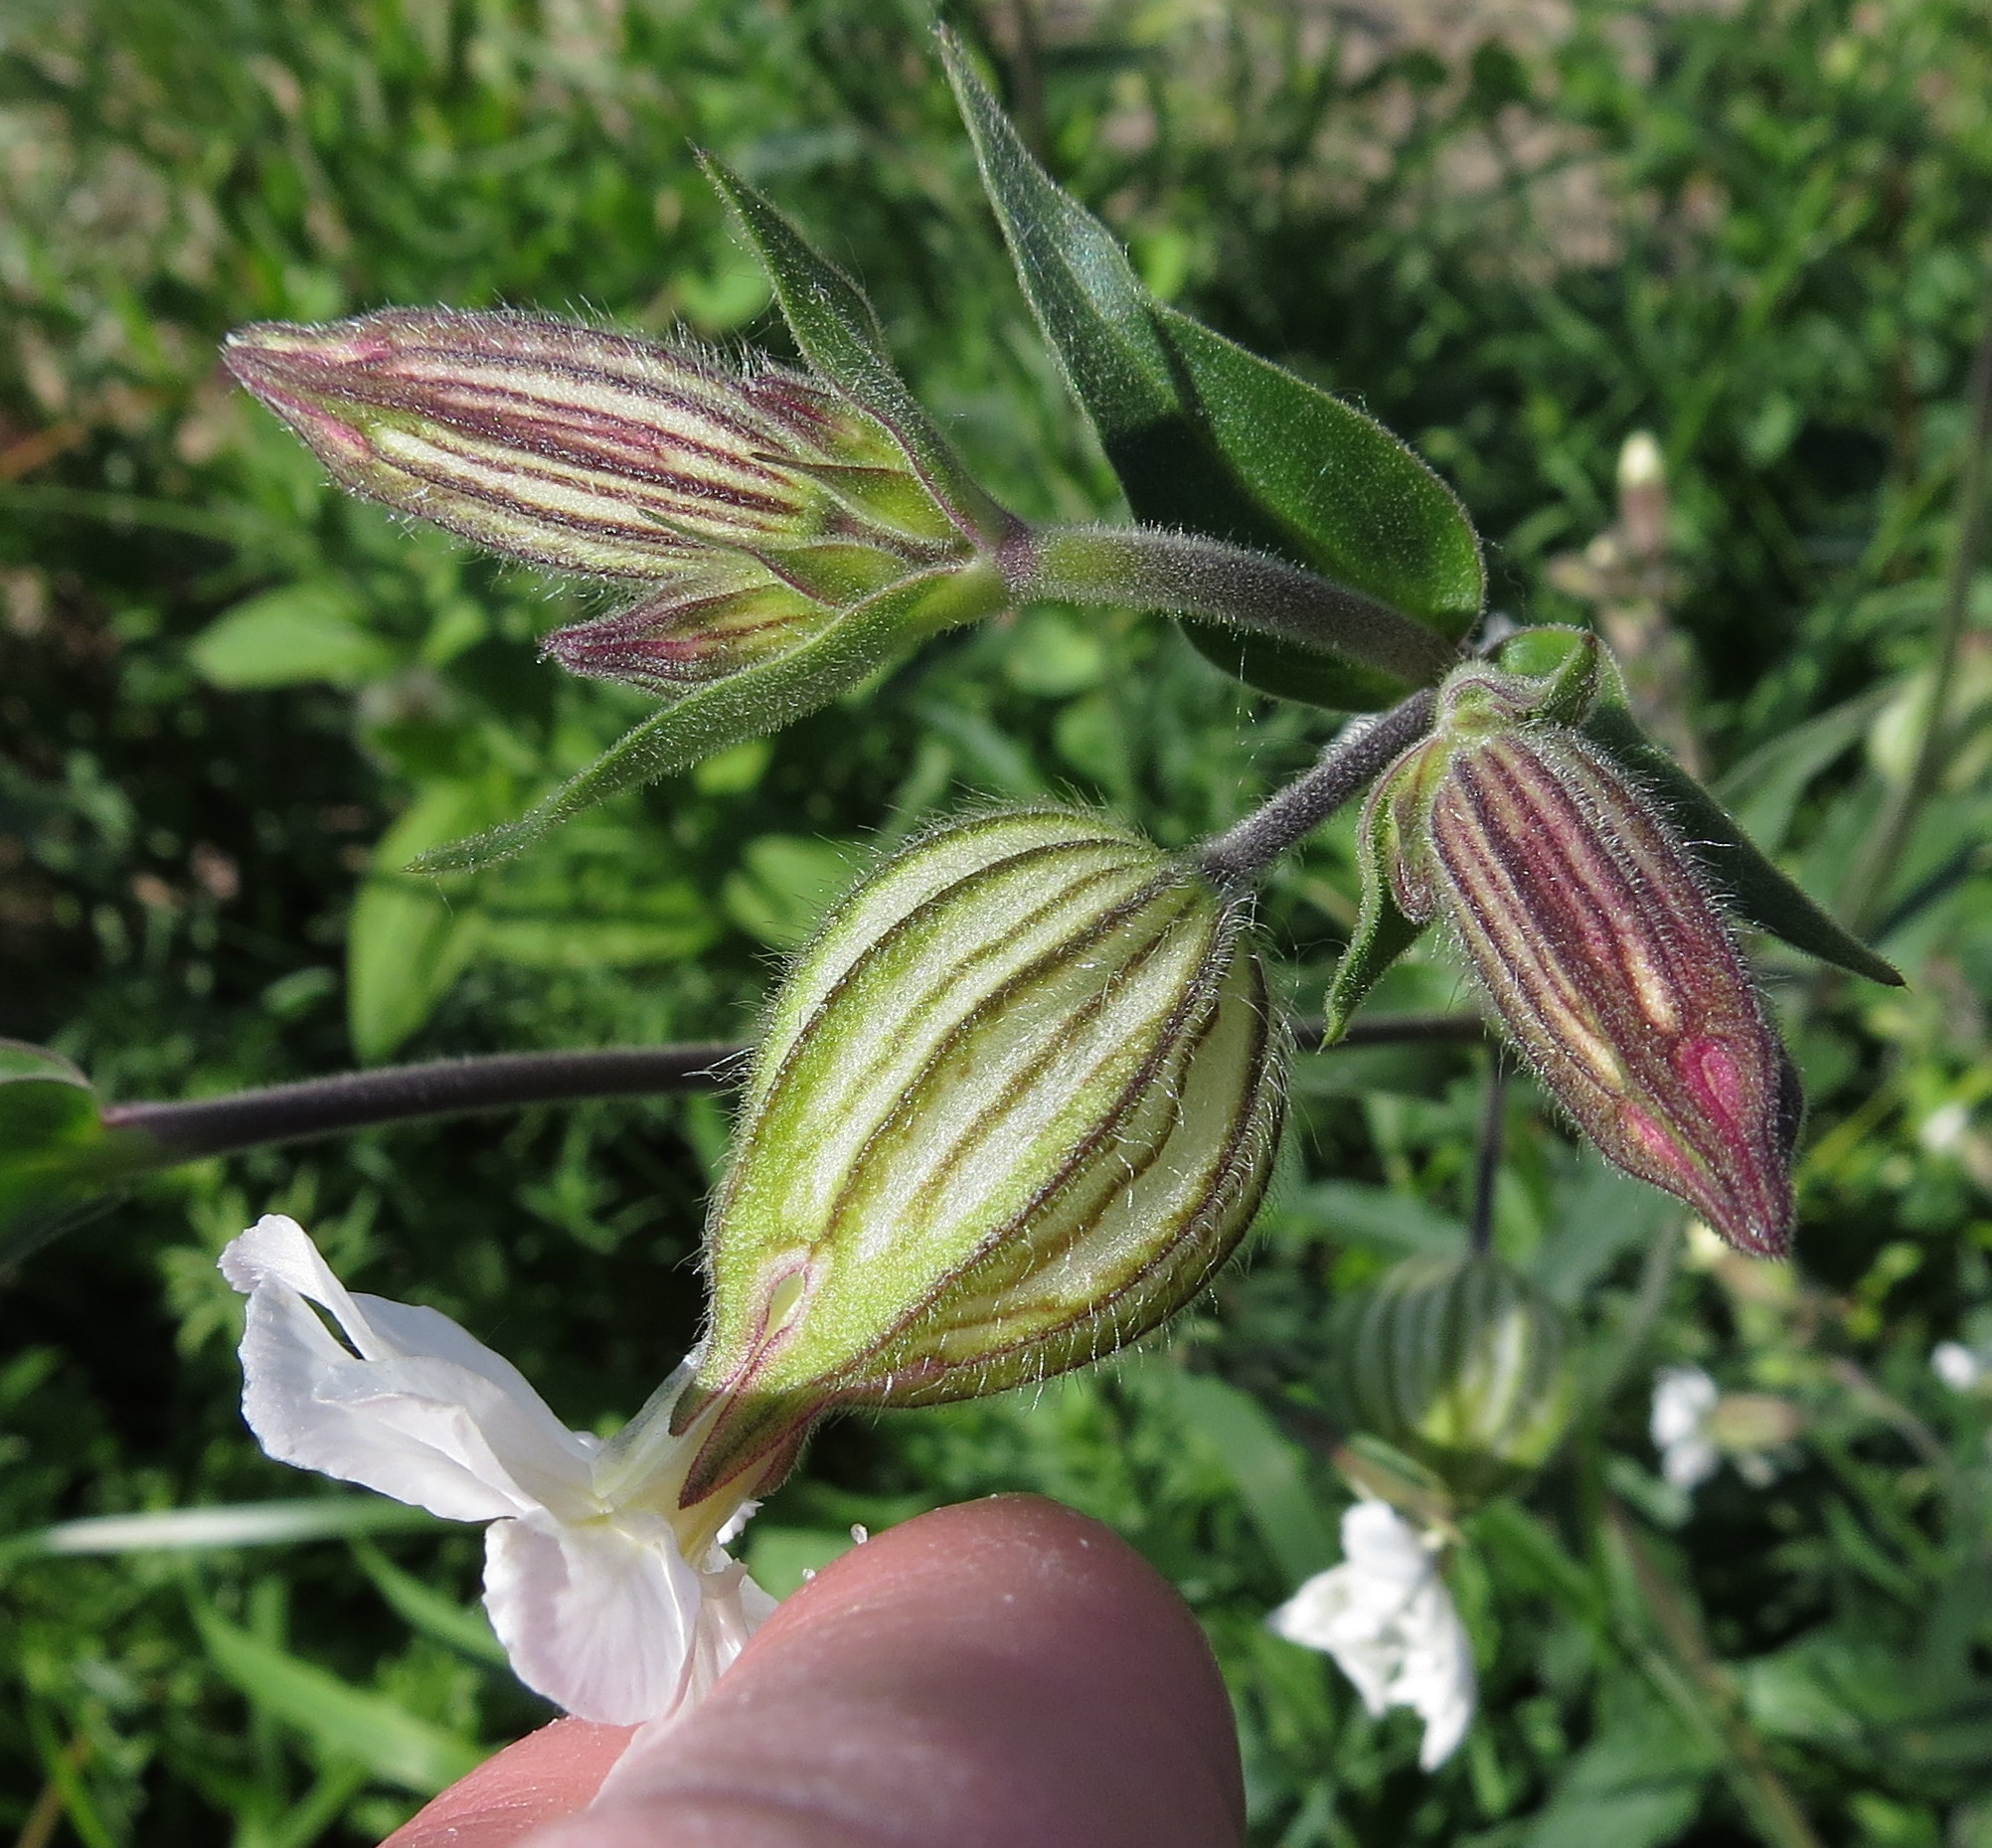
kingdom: Plantae
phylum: Tracheophyta
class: Magnoliopsida
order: Caryophyllales
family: Caryophyllaceae
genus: Silene
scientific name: Silene latifolia
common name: White campion
